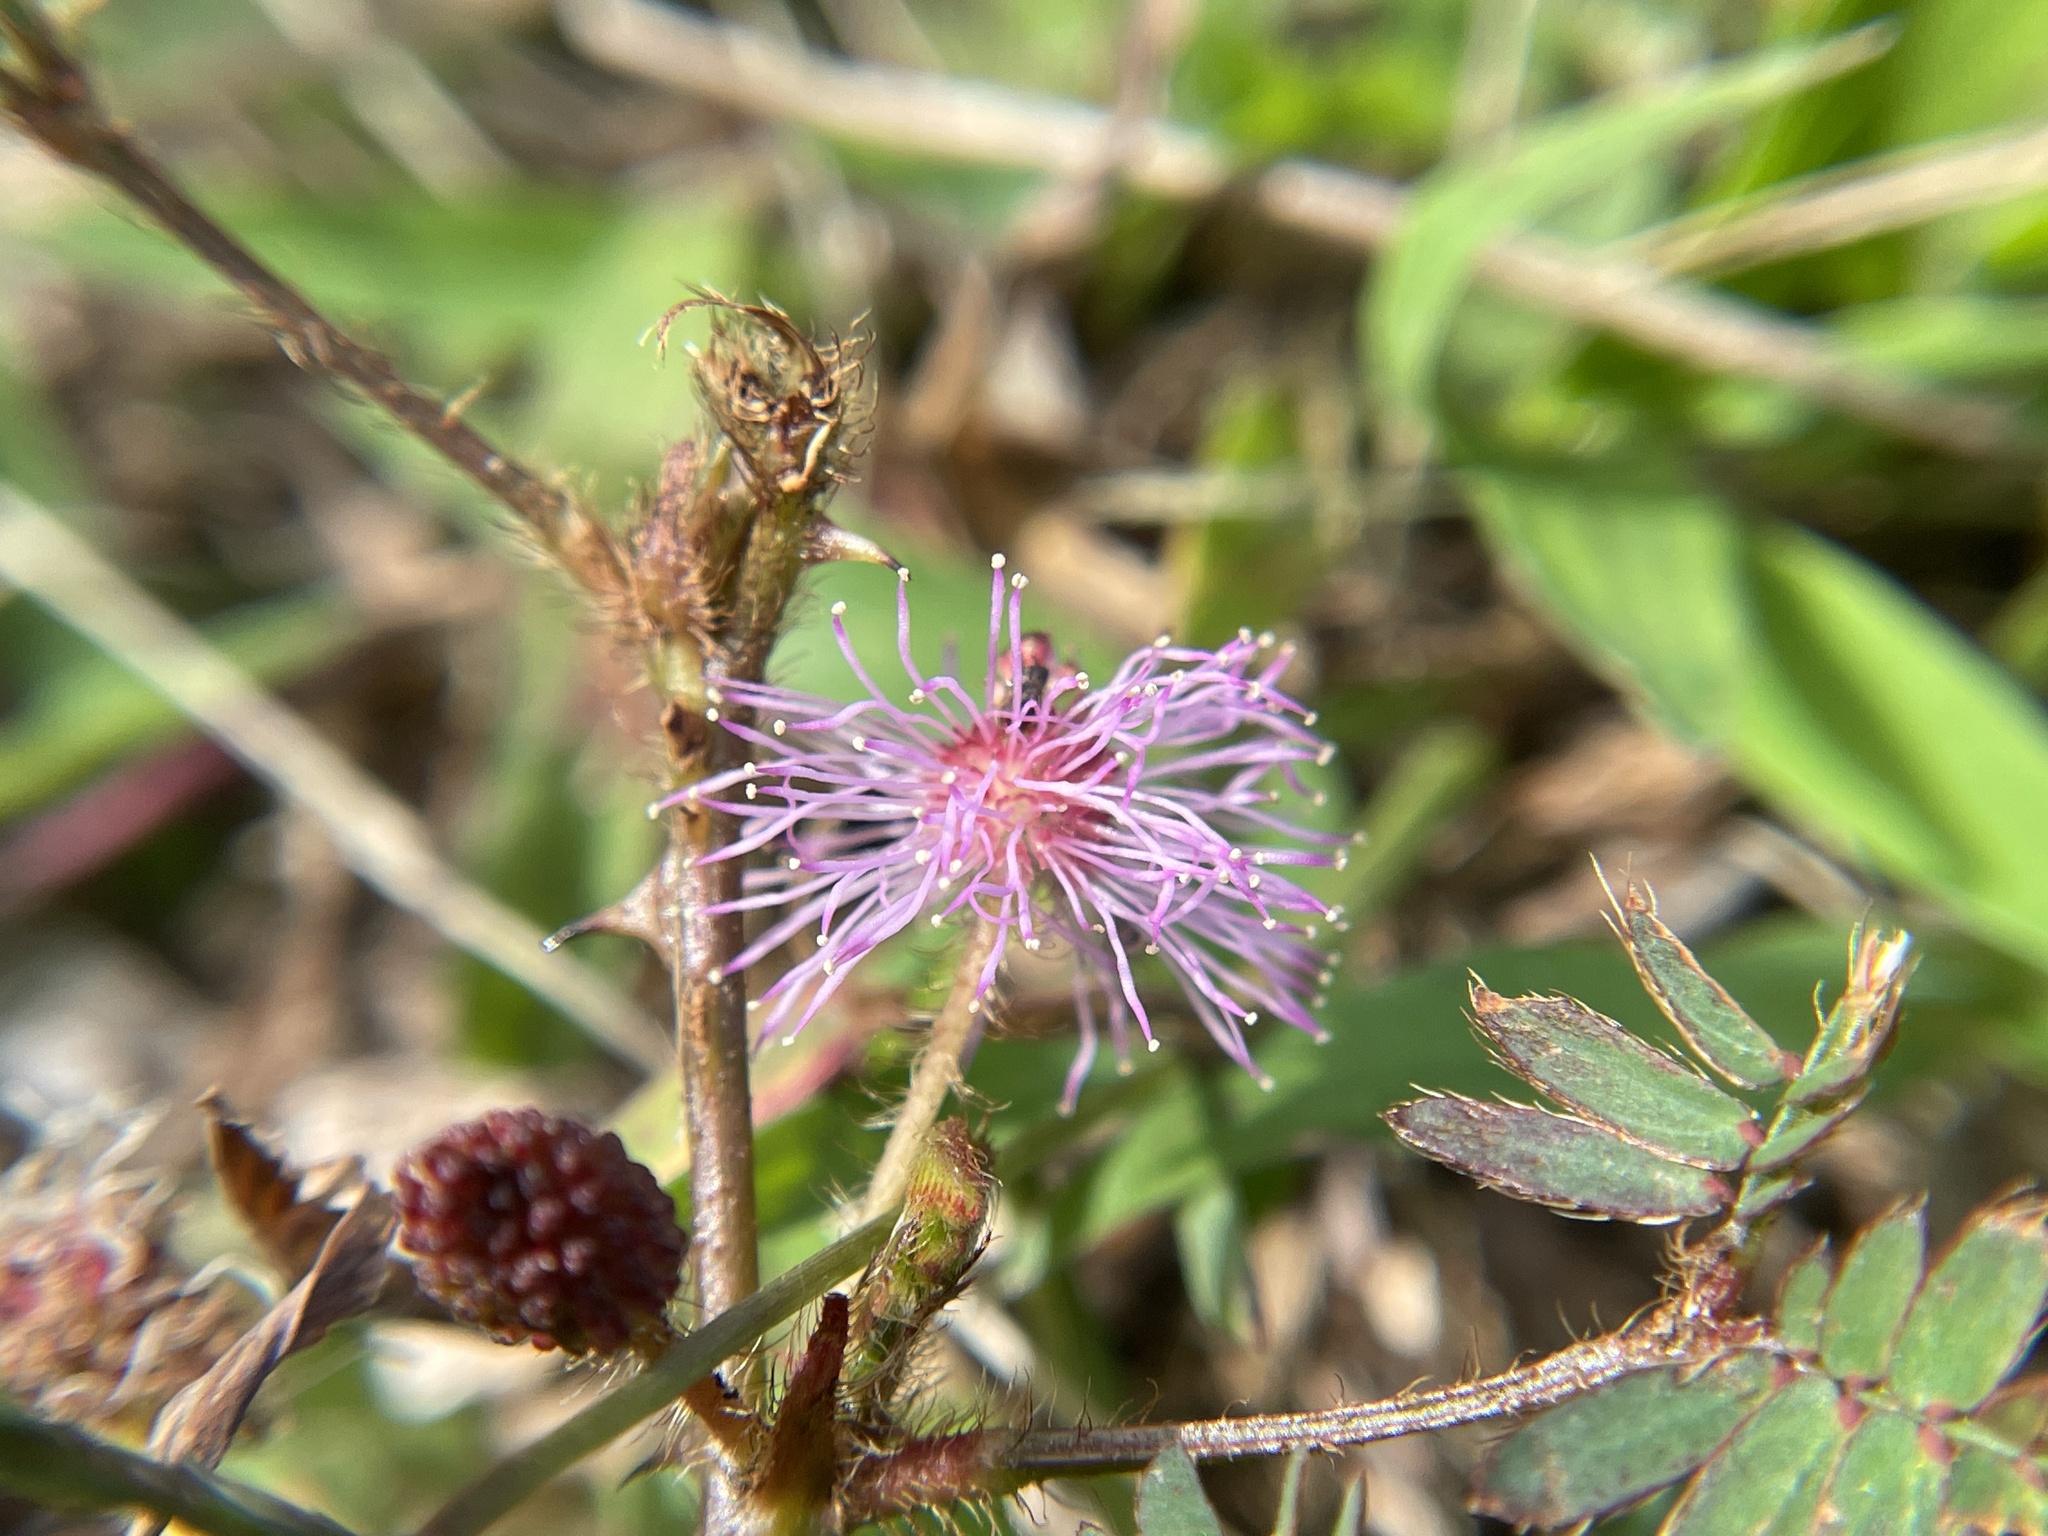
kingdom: Plantae
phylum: Tracheophyta
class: Magnoliopsida
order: Fabales
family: Fabaceae
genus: Mimosa
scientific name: Mimosa pudica
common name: Sensitive plant
